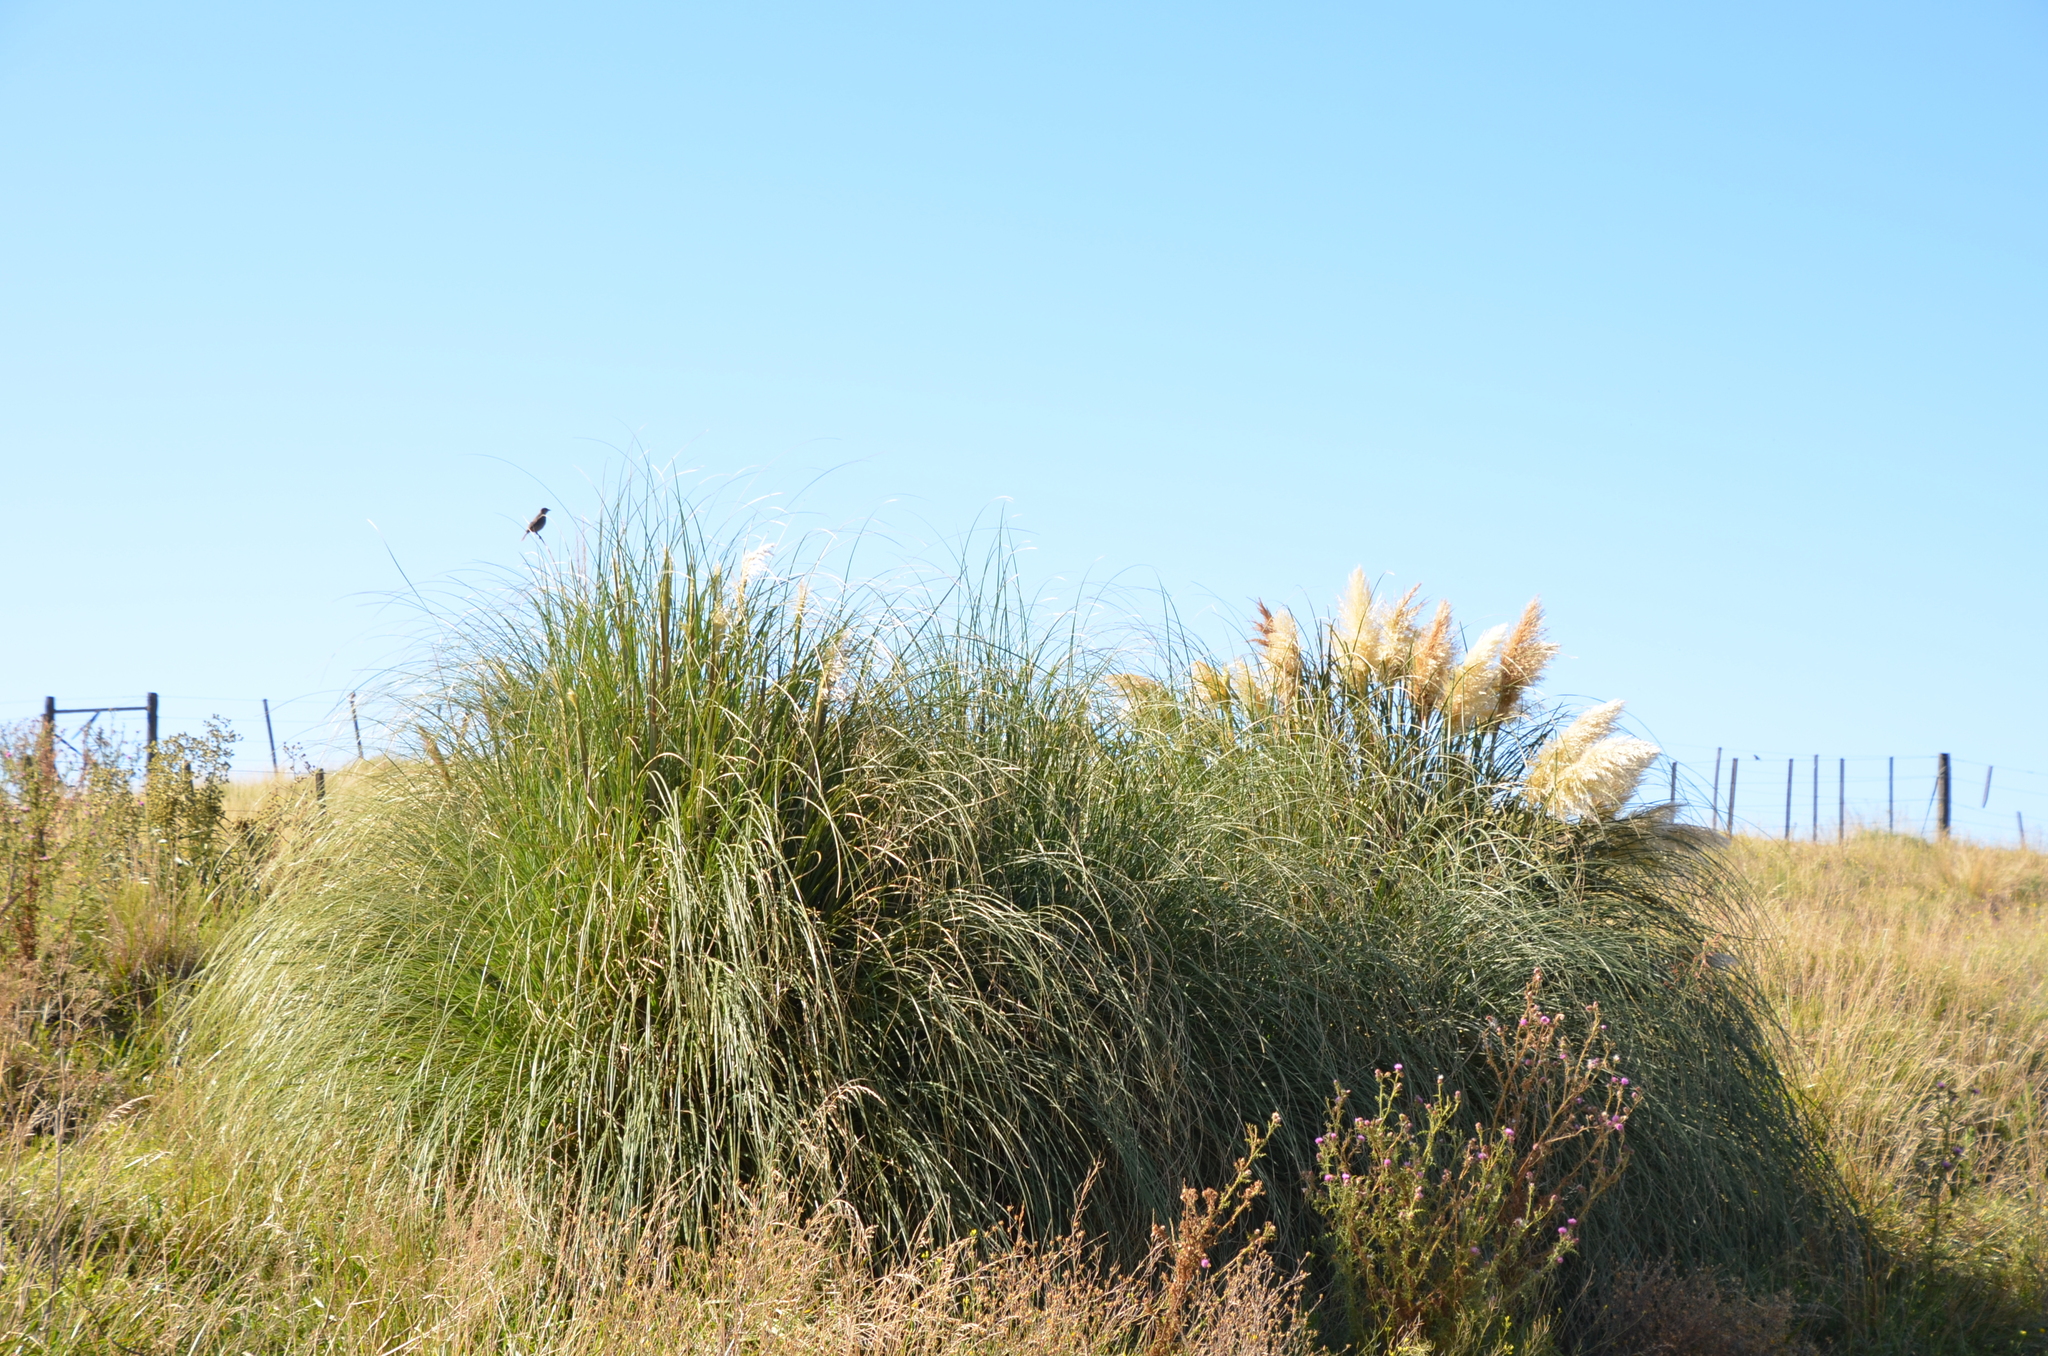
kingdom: Plantae
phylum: Tracheophyta
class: Liliopsida
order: Poales
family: Poaceae
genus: Cortaderia
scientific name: Cortaderia selloana
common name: Uruguayan pampas grass
